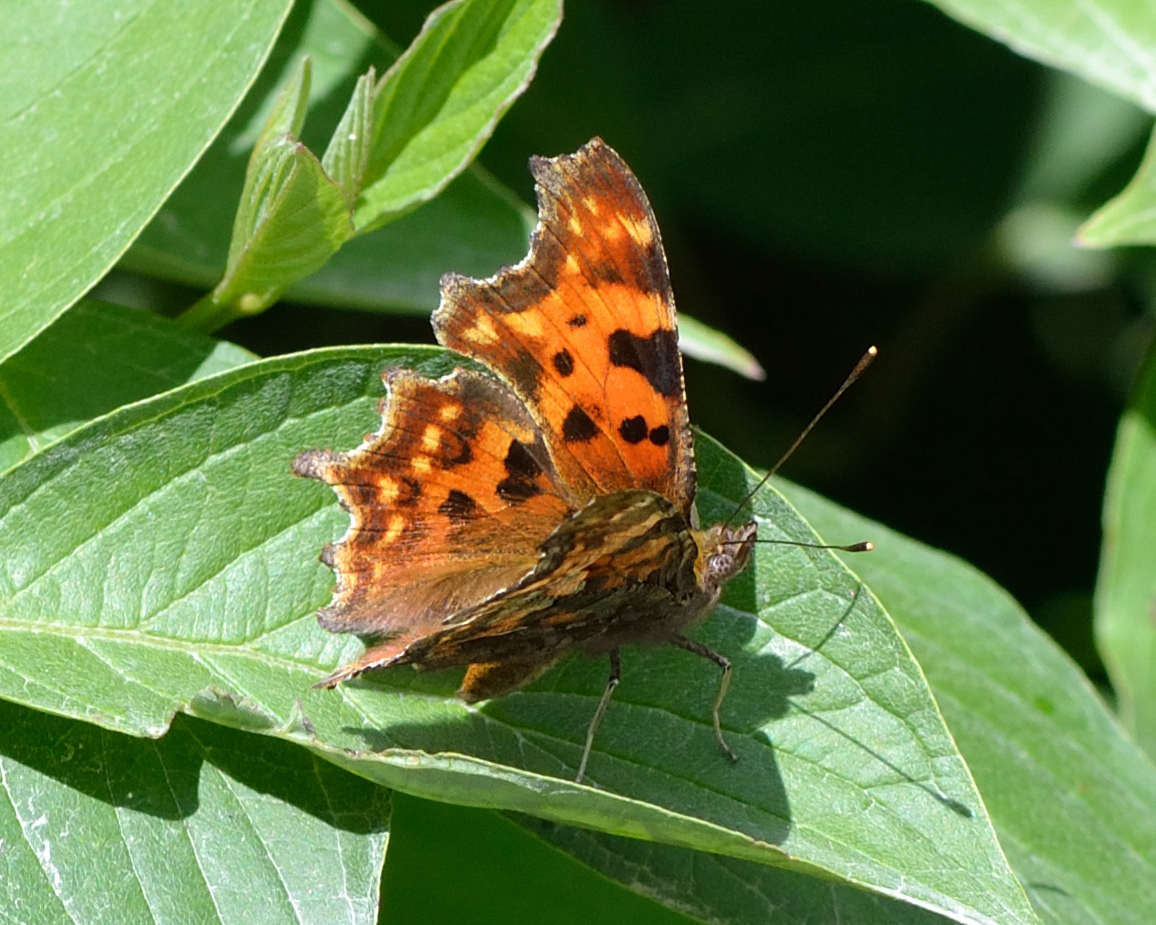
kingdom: Animalia
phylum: Arthropoda
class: Insecta
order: Lepidoptera
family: Nymphalidae
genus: Polygonia
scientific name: Polygonia c-album
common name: Comma
